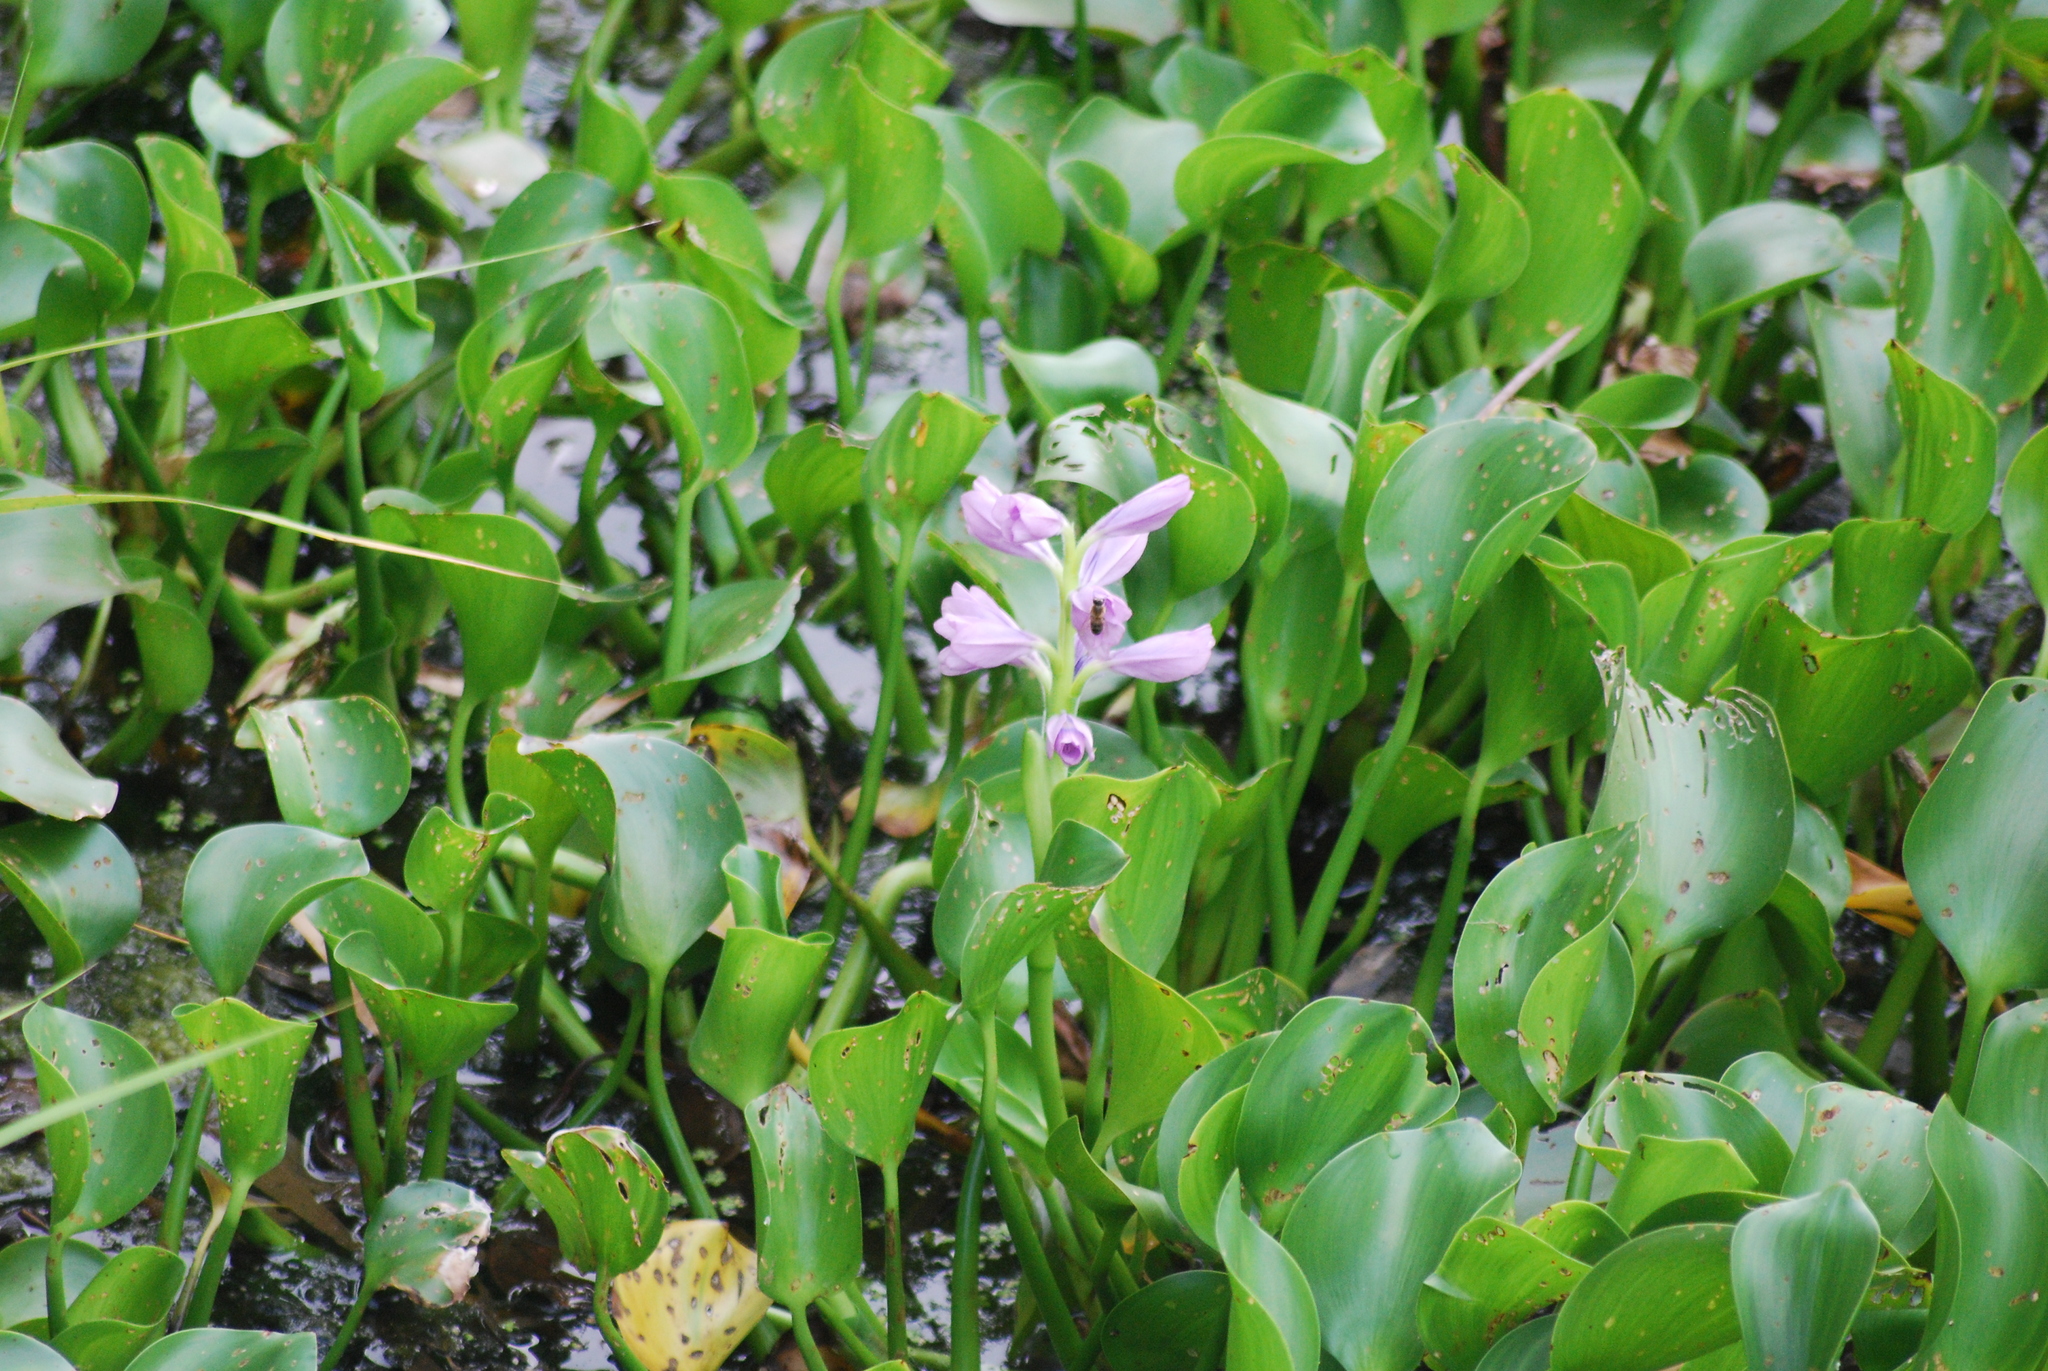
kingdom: Plantae
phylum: Tracheophyta
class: Liliopsida
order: Commelinales
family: Pontederiaceae
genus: Pontederia
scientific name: Pontederia crassipes
